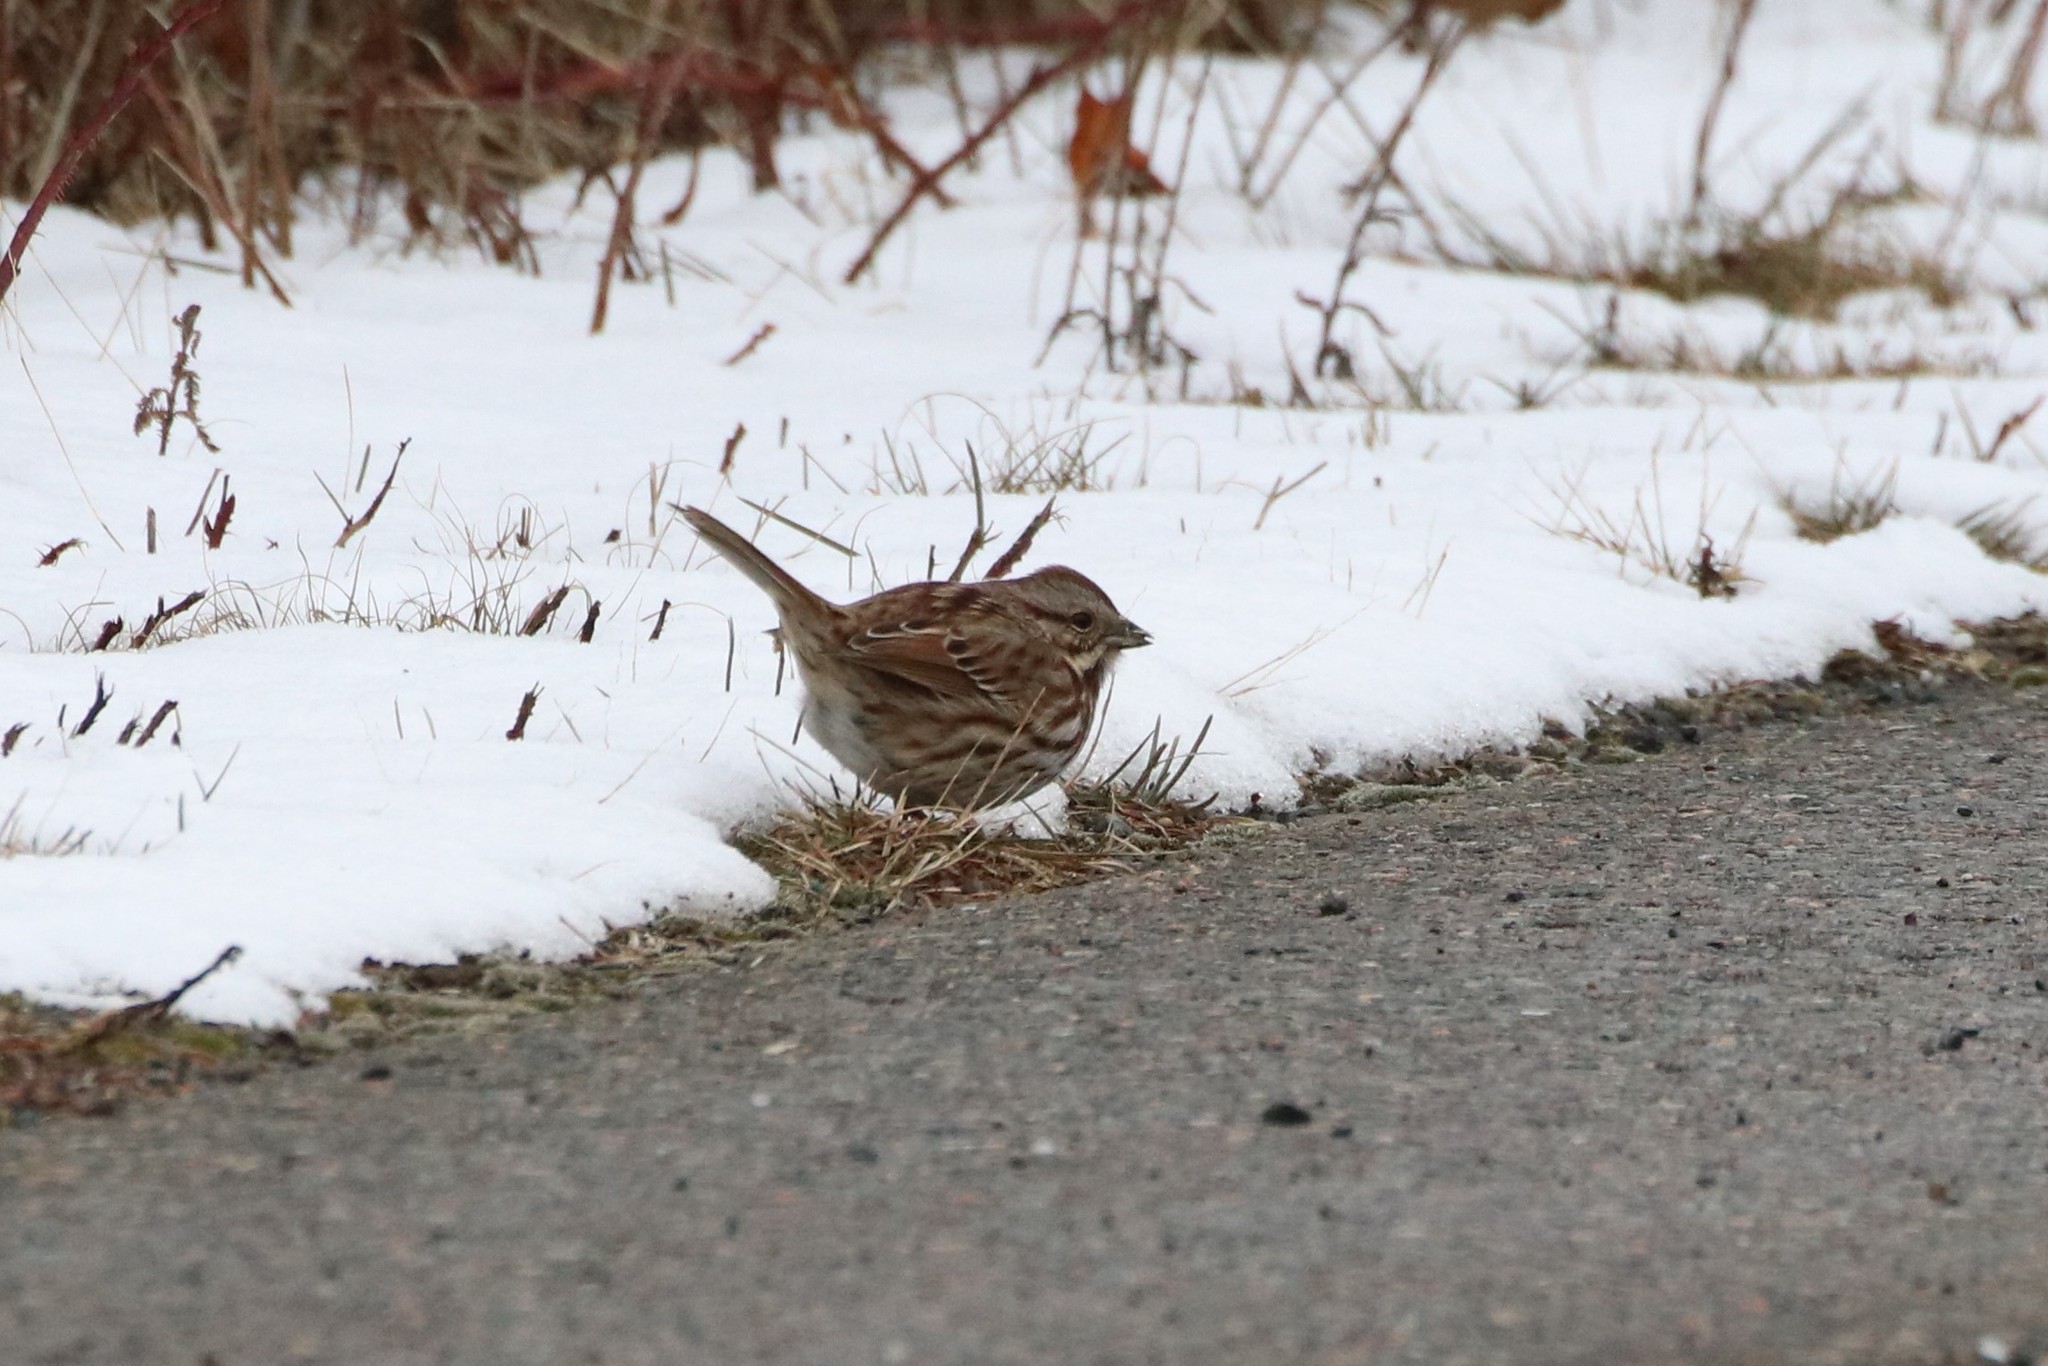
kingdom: Animalia
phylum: Chordata
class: Aves
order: Passeriformes
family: Passerellidae
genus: Melospiza
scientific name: Melospiza melodia
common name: Song sparrow
